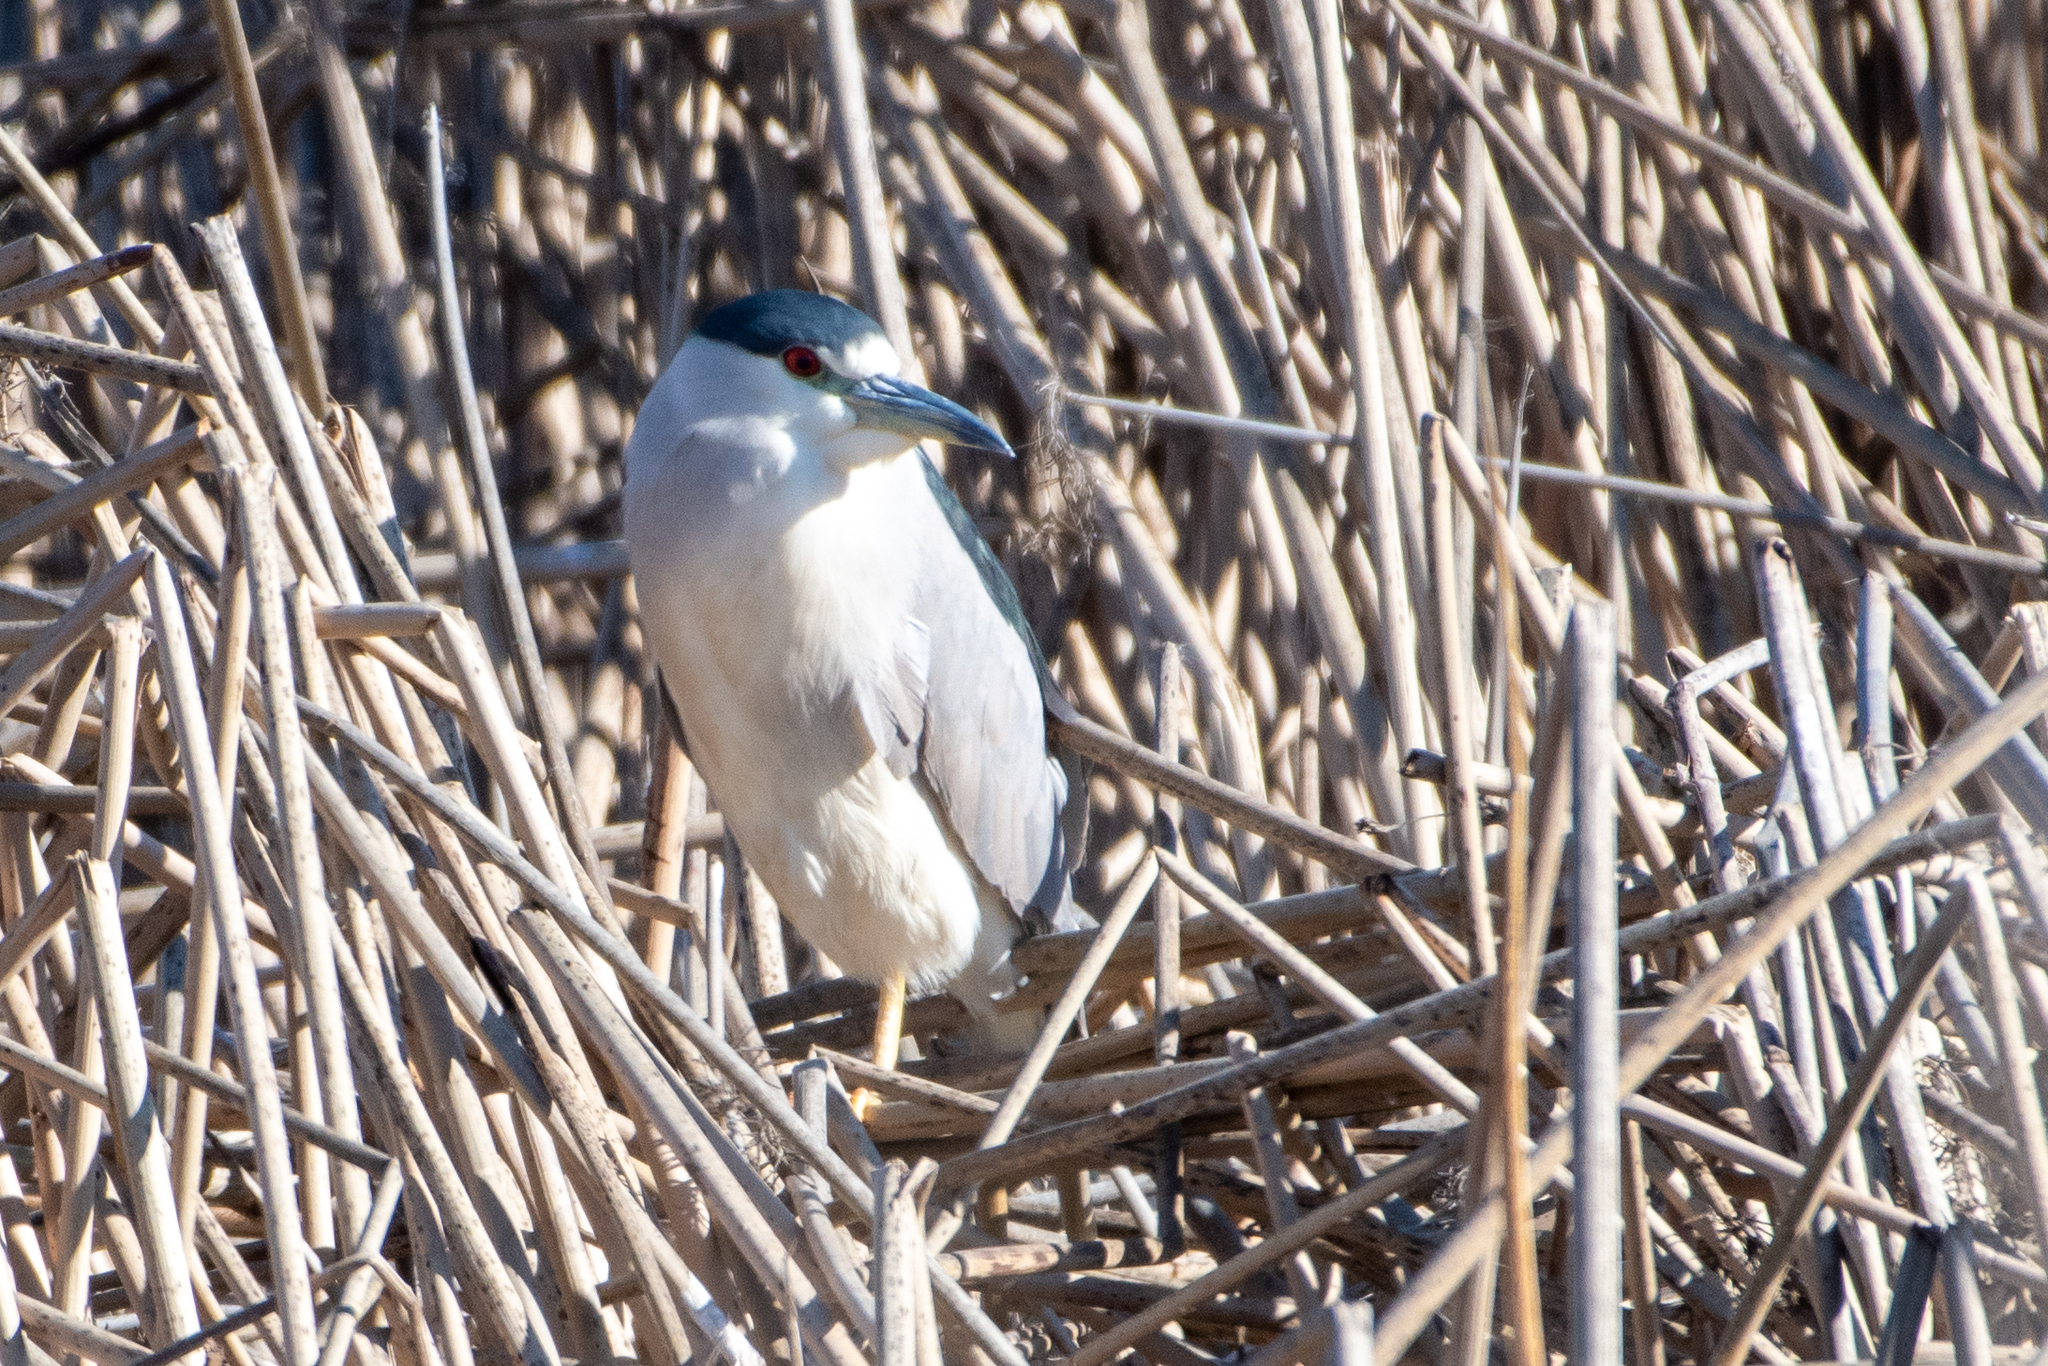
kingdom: Animalia
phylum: Chordata
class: Aves
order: Pelecaniformes
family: Ardeidae
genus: Nycticorax
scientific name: Nycticorax nycticorax
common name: Black-crowned night heron
